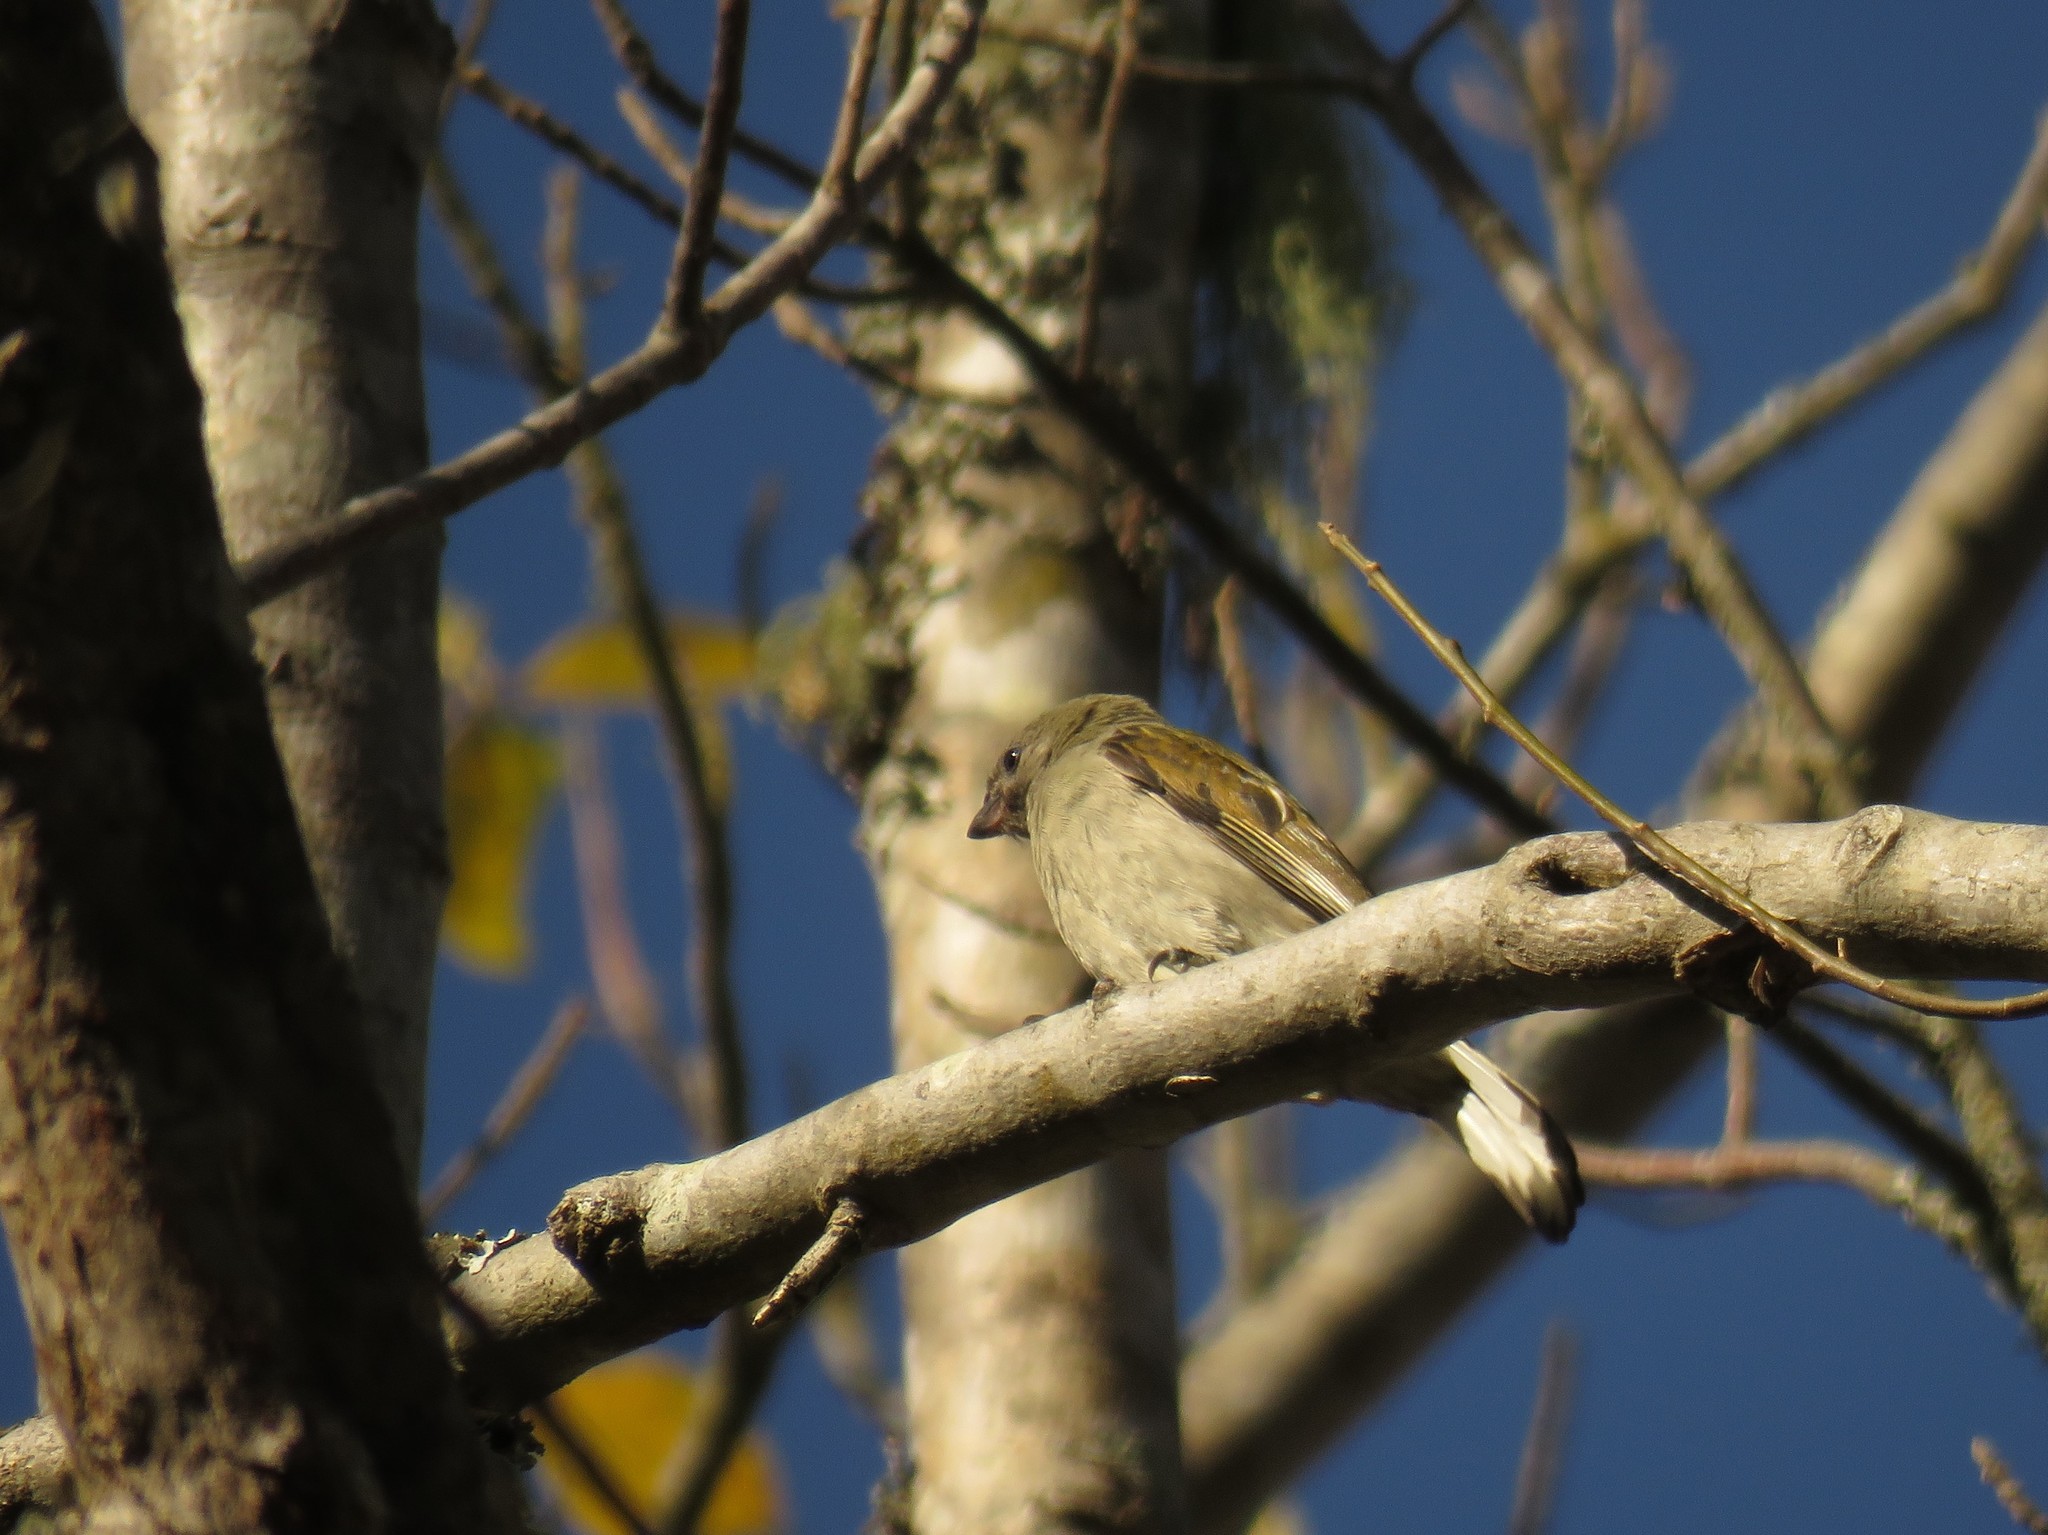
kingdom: Animalia
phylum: Chordata
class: Aves
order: Piciformes
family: Indicatoridae
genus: Indicator
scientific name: Indicator minor
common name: Lesser honeyguide
